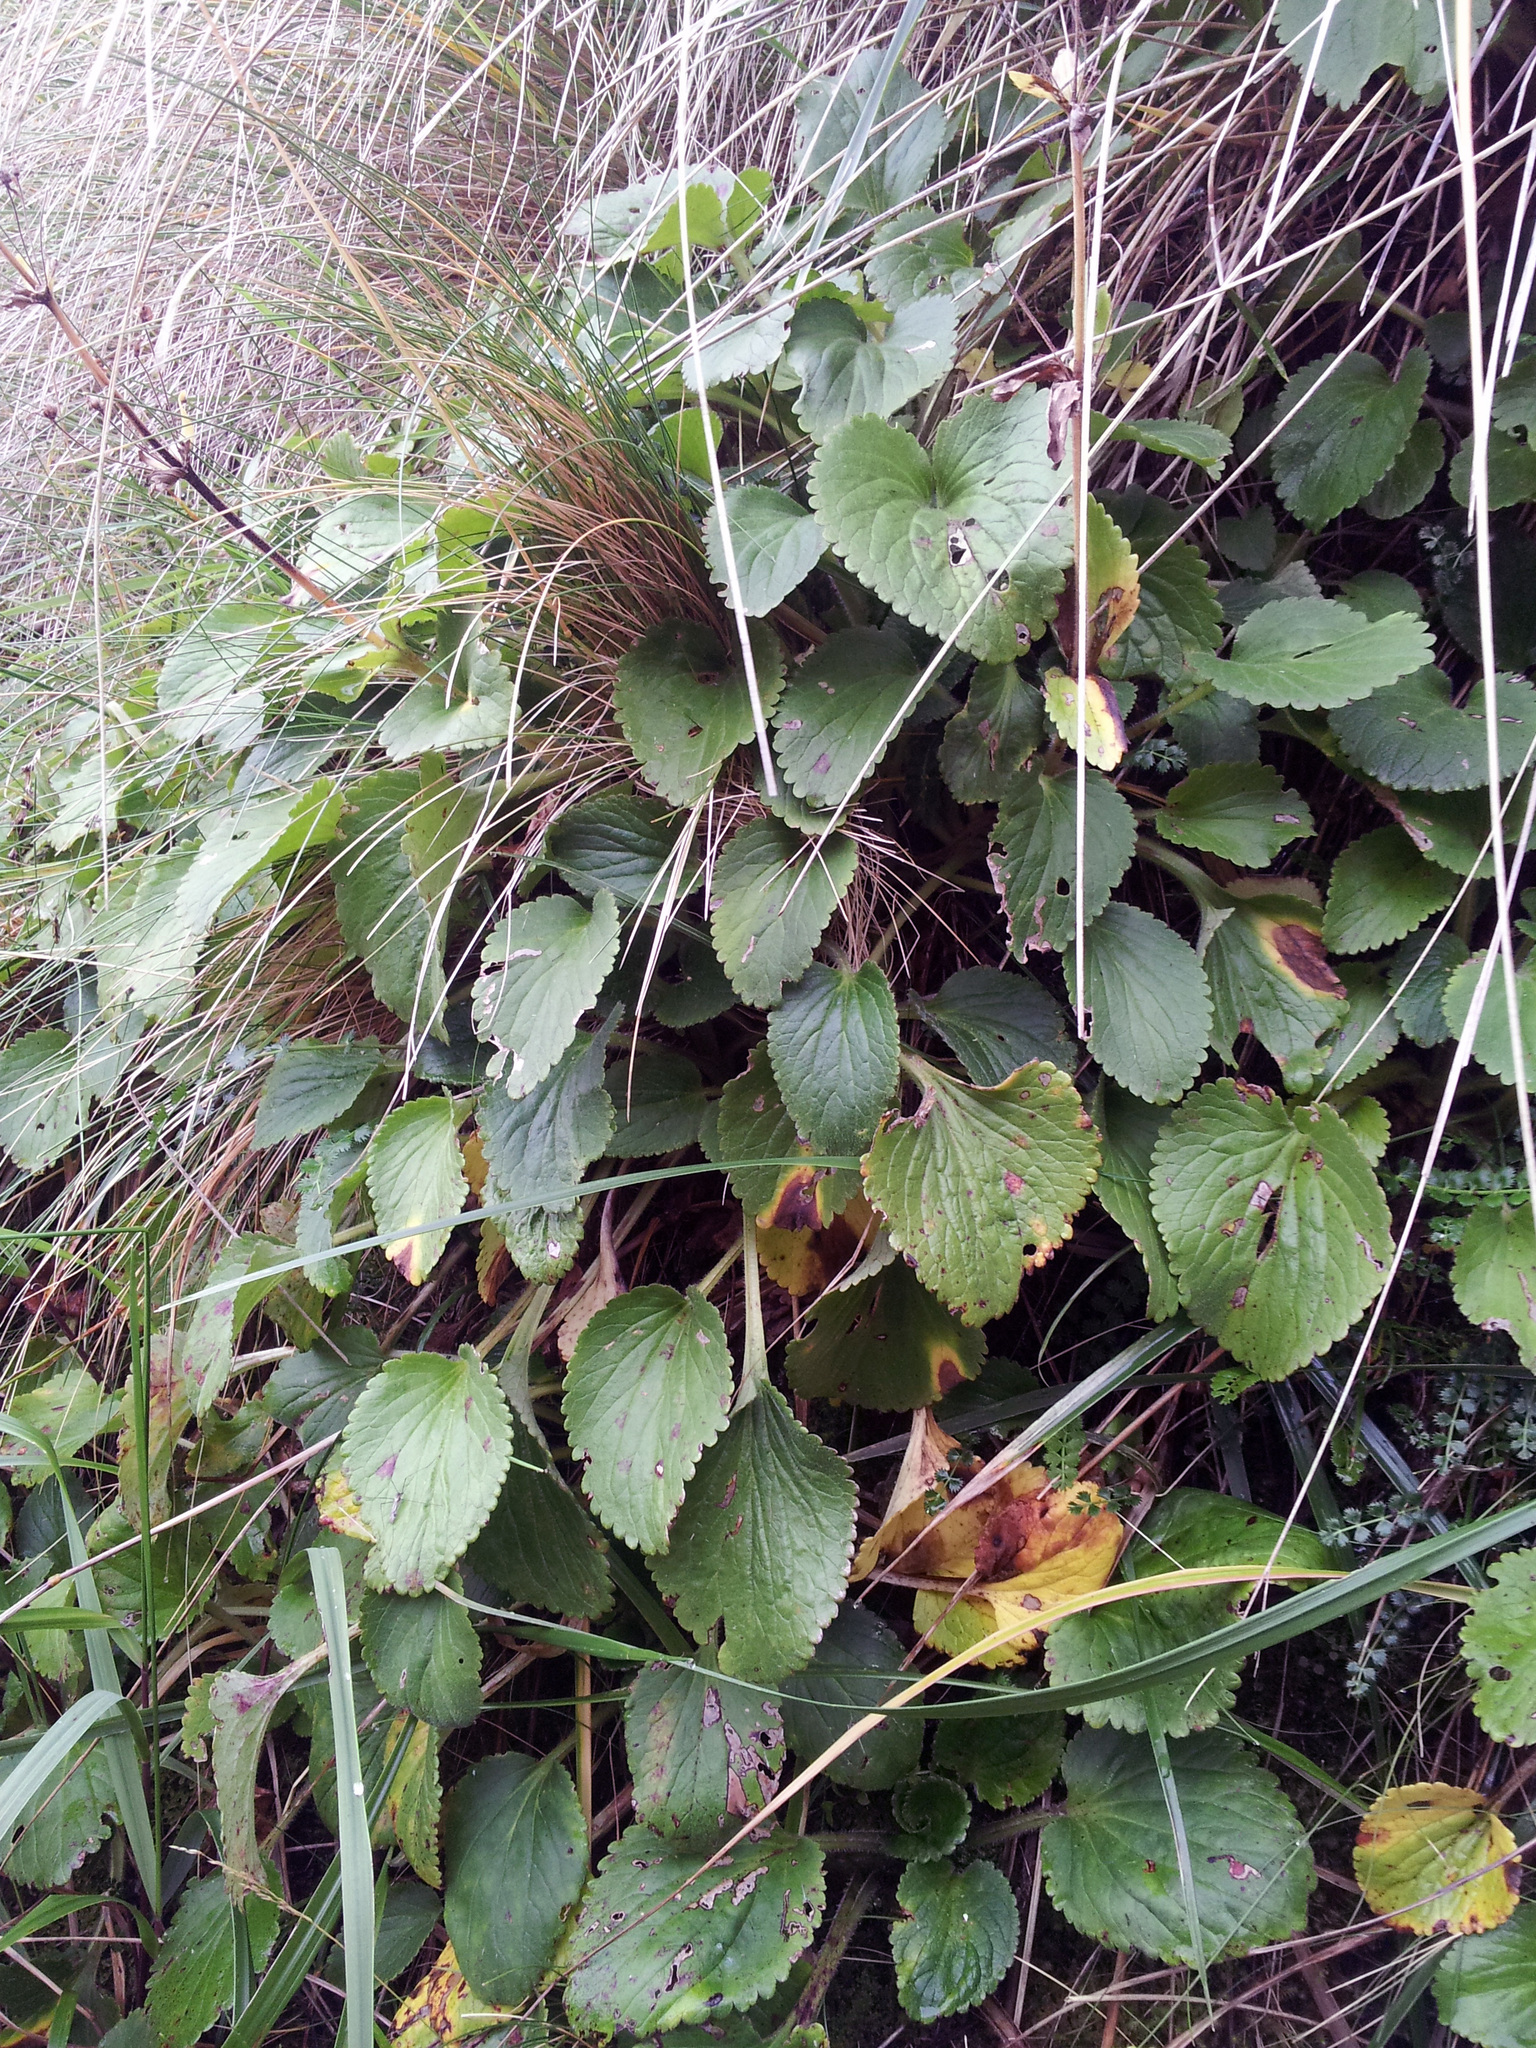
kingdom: Plantae
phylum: Tracheophyta
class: Magnoliopsida
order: Lamiales
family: Plantaginaceae
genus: Ourisia
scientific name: Ourisia macrophylla
